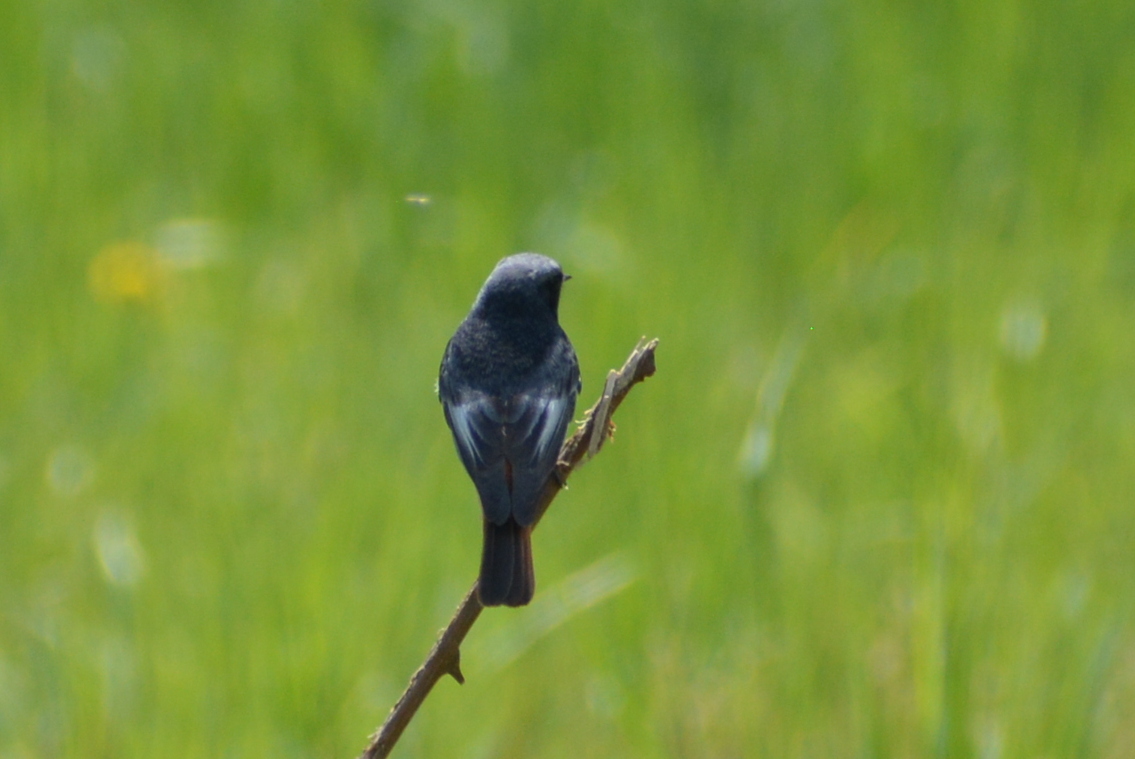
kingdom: Animalia
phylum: Chordata
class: Aves
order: Passeriformes
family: Muscicapidae
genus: Phoenicurus
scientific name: Phoenicurus ochruros
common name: Black redstart
